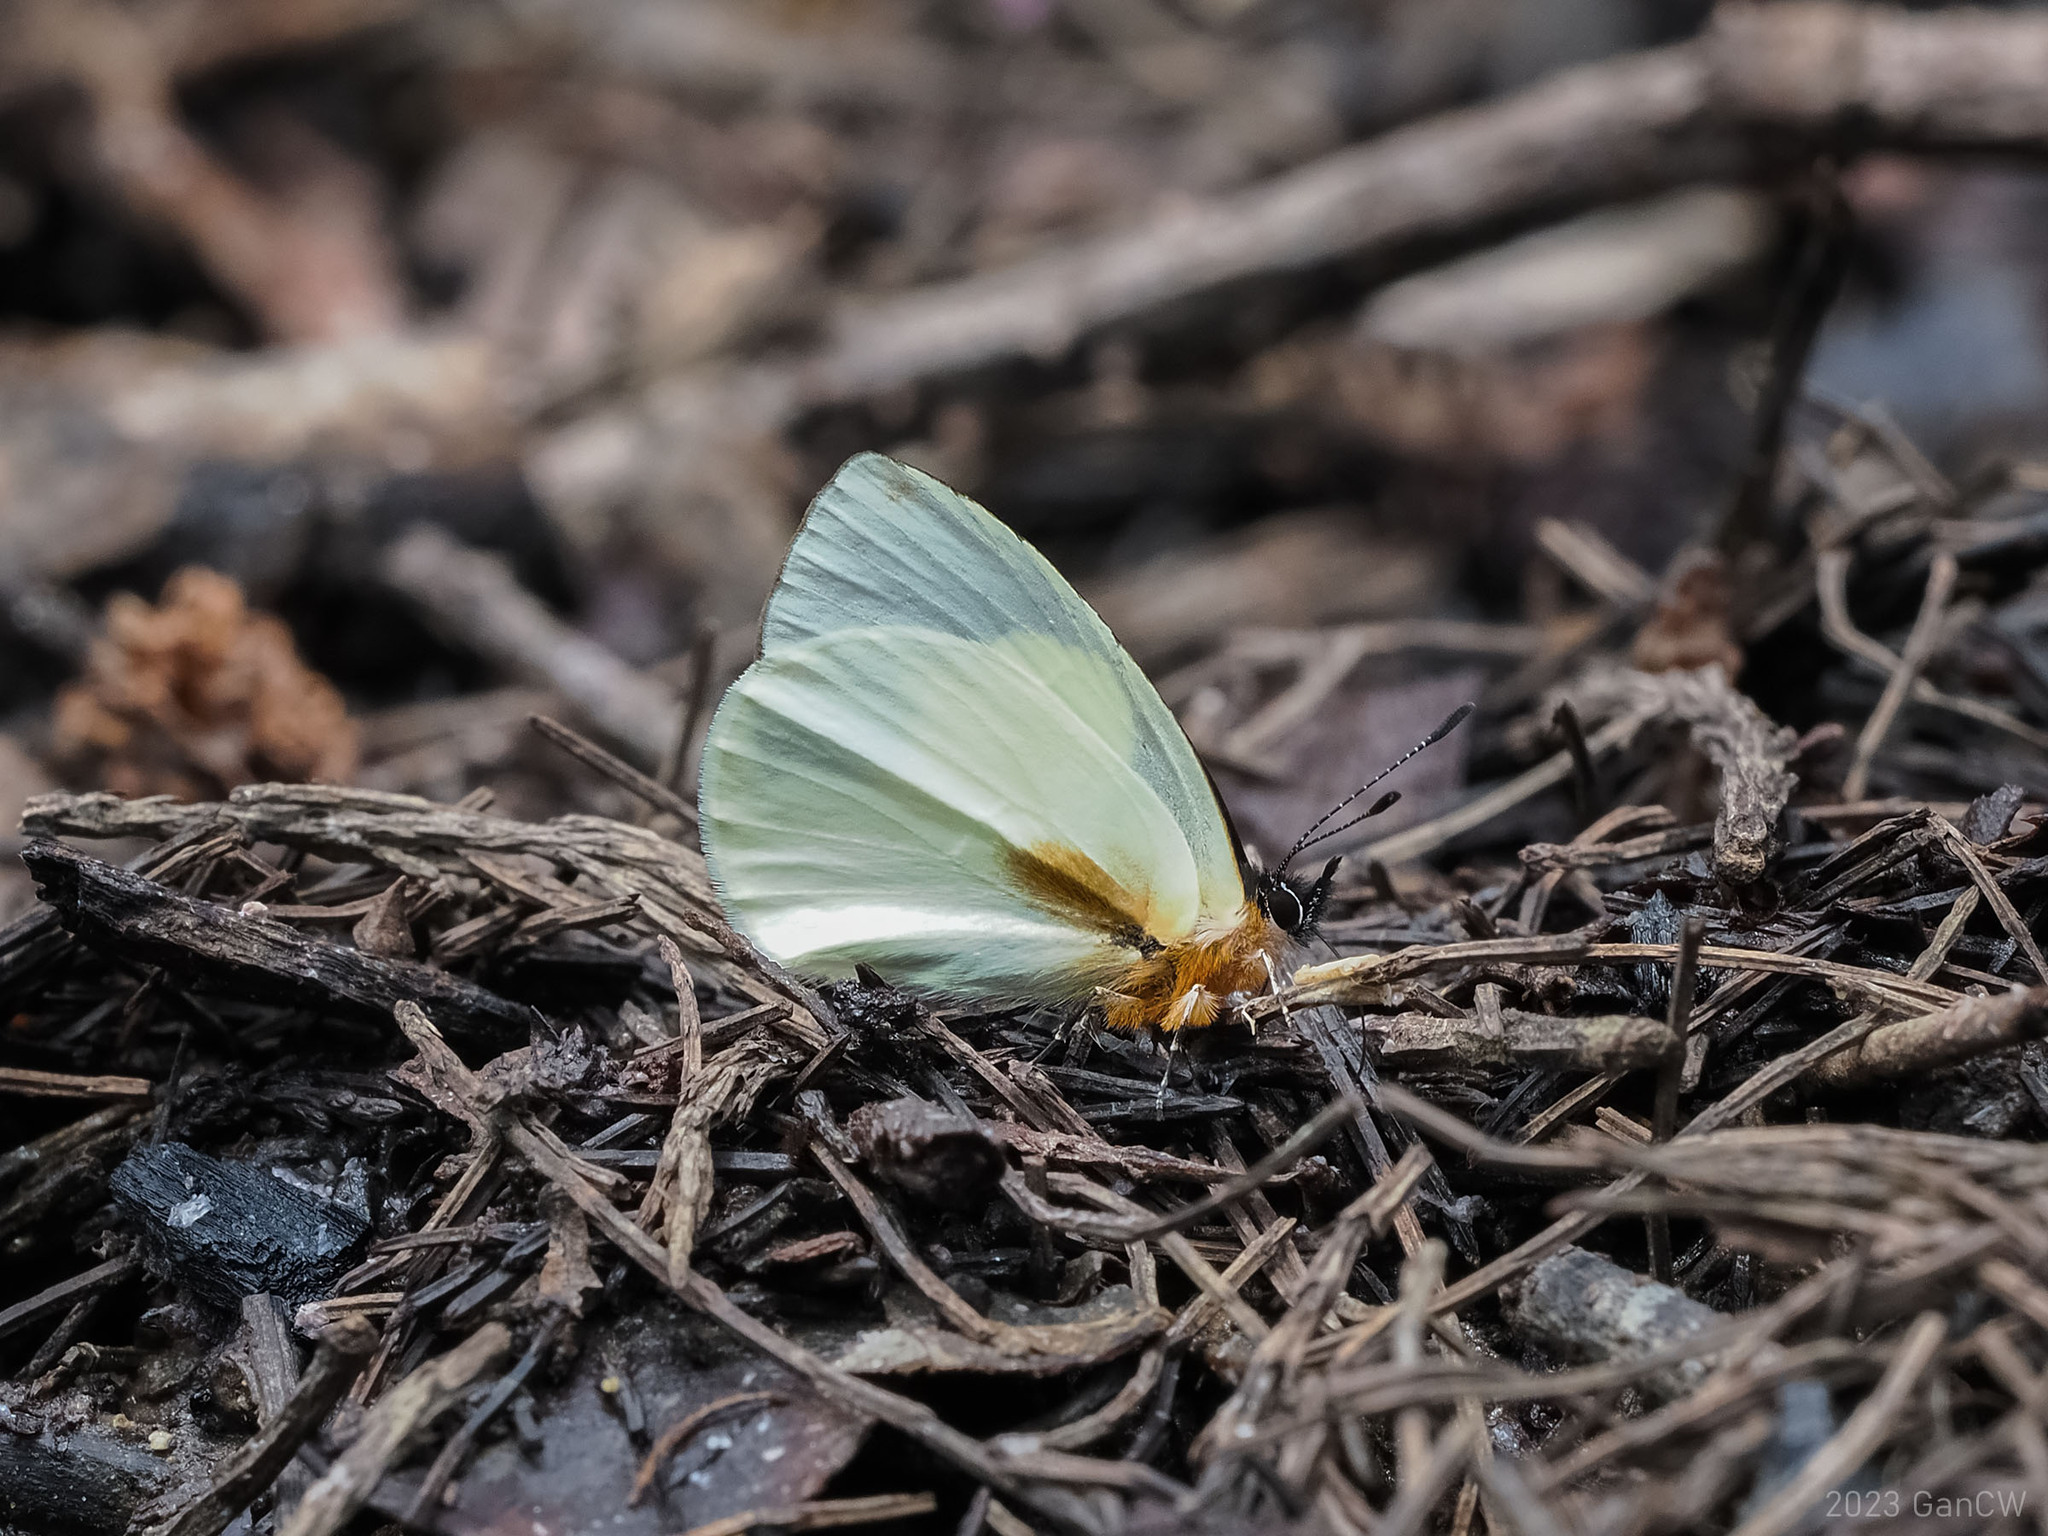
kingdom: Animalia
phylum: Arthropoda
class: Insecta
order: Lepidoptera
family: Lycaenidae
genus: Parelodina
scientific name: Parelodina aroa
